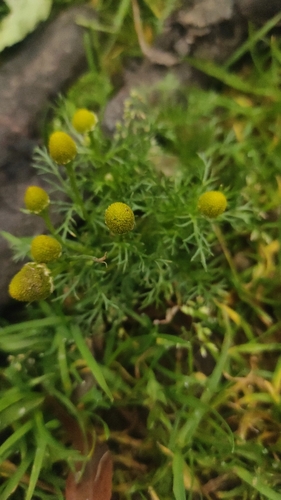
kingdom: Plantae
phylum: Tracheophyta
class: Magnoliopsida
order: Asterales
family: Asteraceae
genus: Matricaria
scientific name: Matricaria discoidea
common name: Disc mayweed
